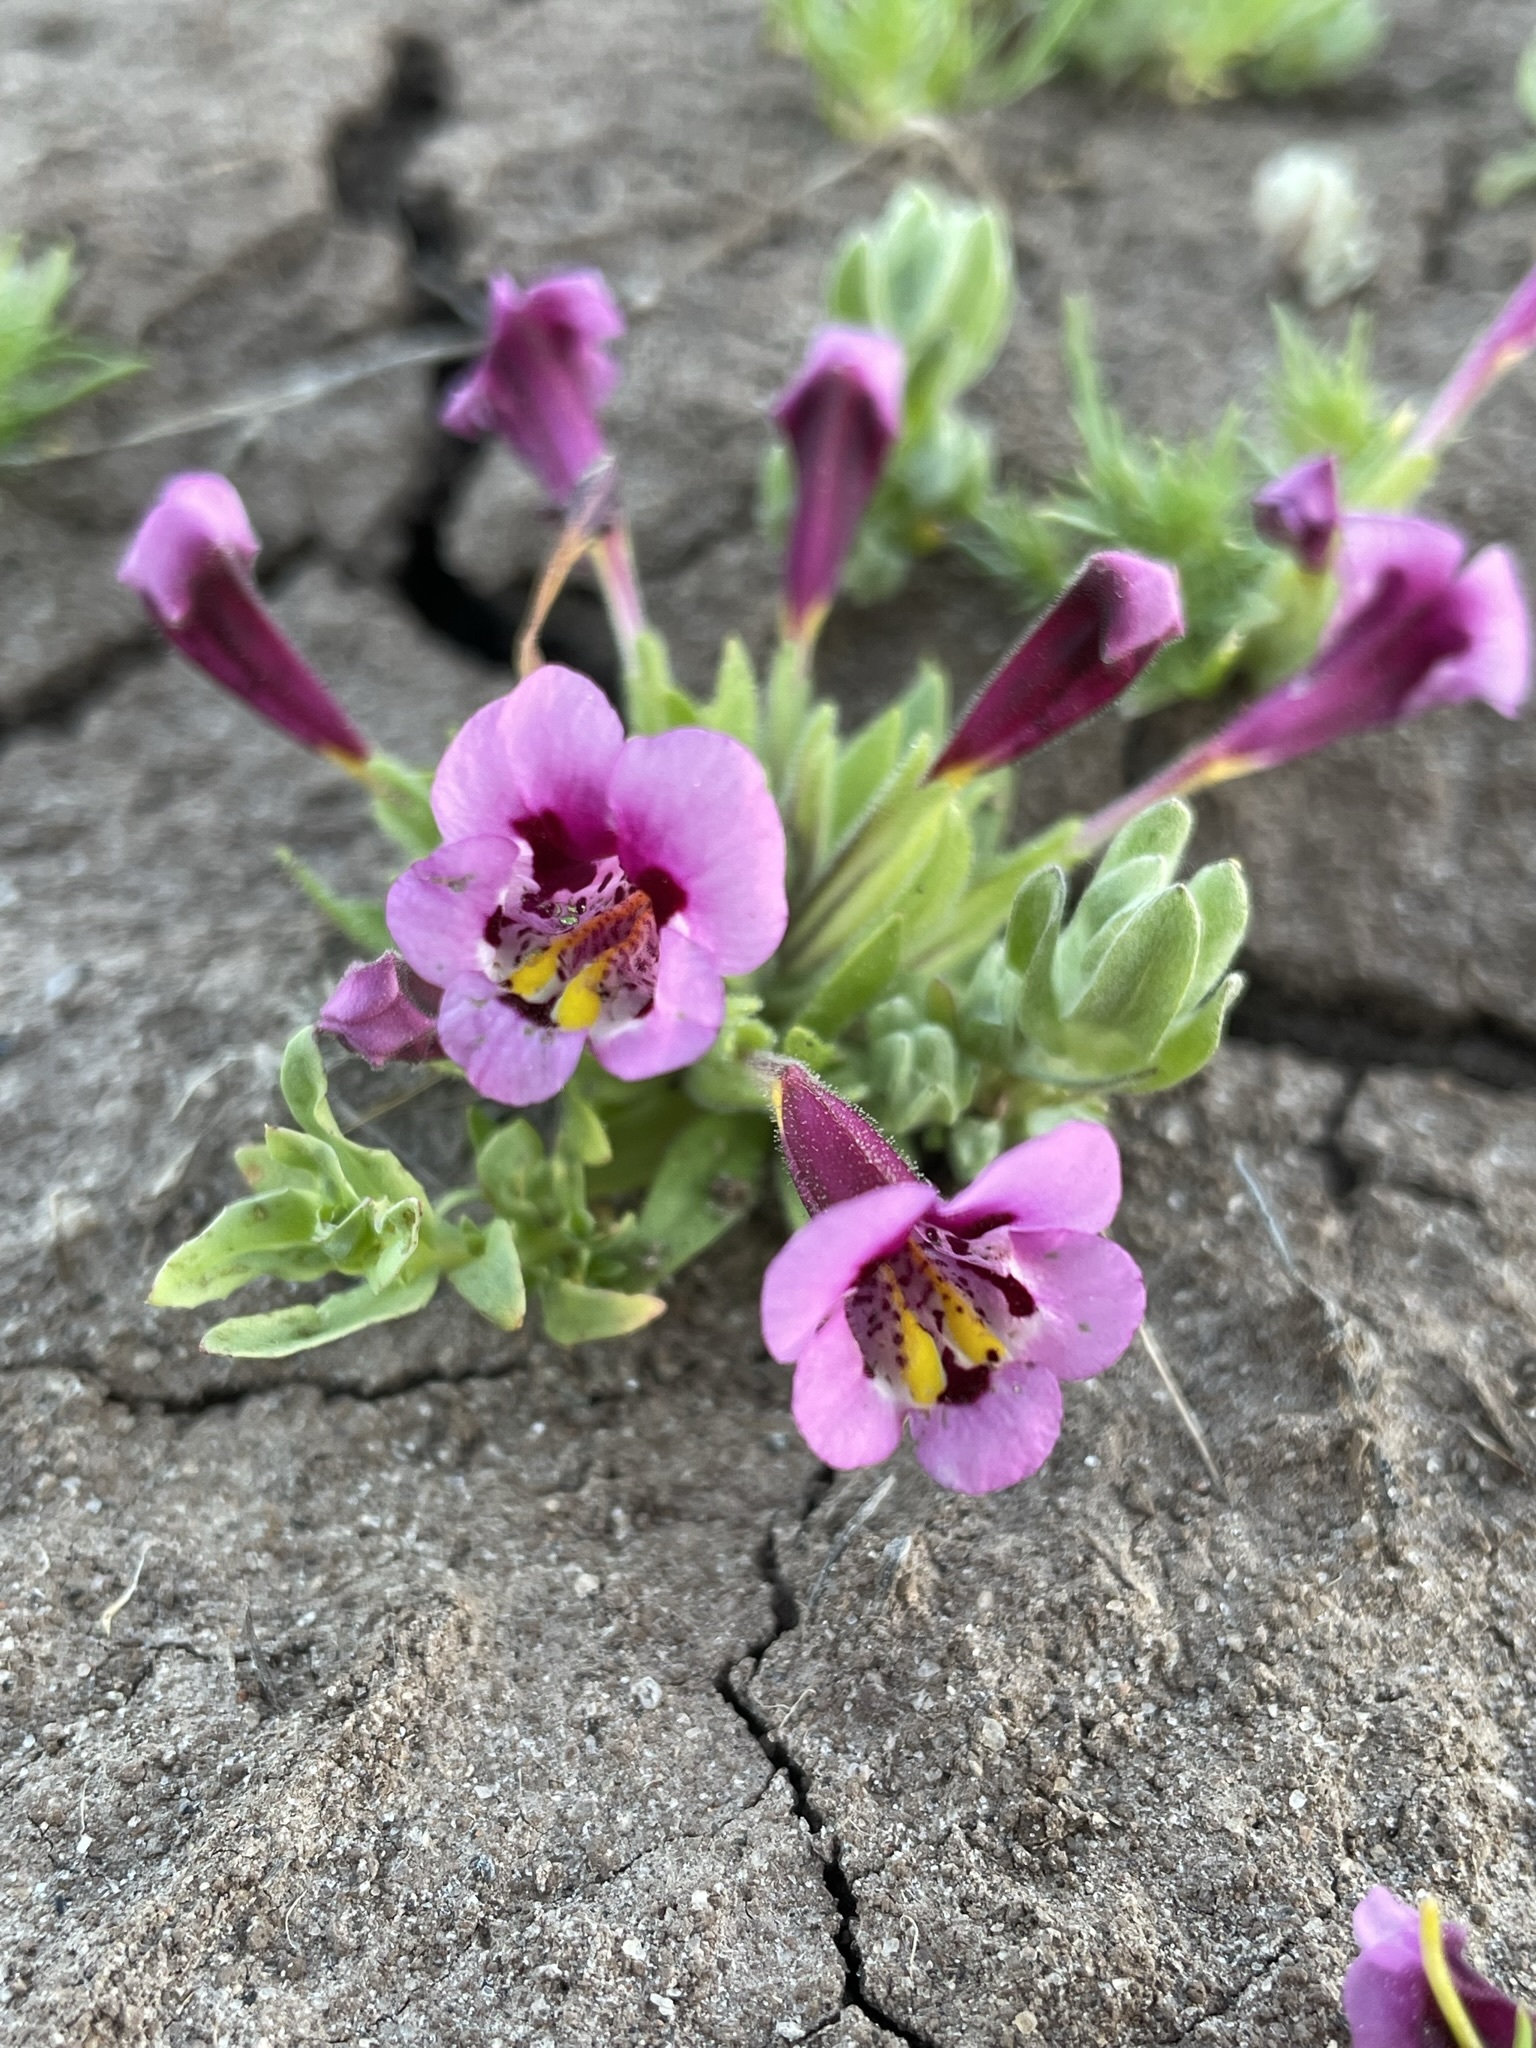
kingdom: Plantae
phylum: Tracheophyta
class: Magnoliopsida
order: Lamiales
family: Phrymaceae
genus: Diplacus
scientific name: Diplacus tricolor
